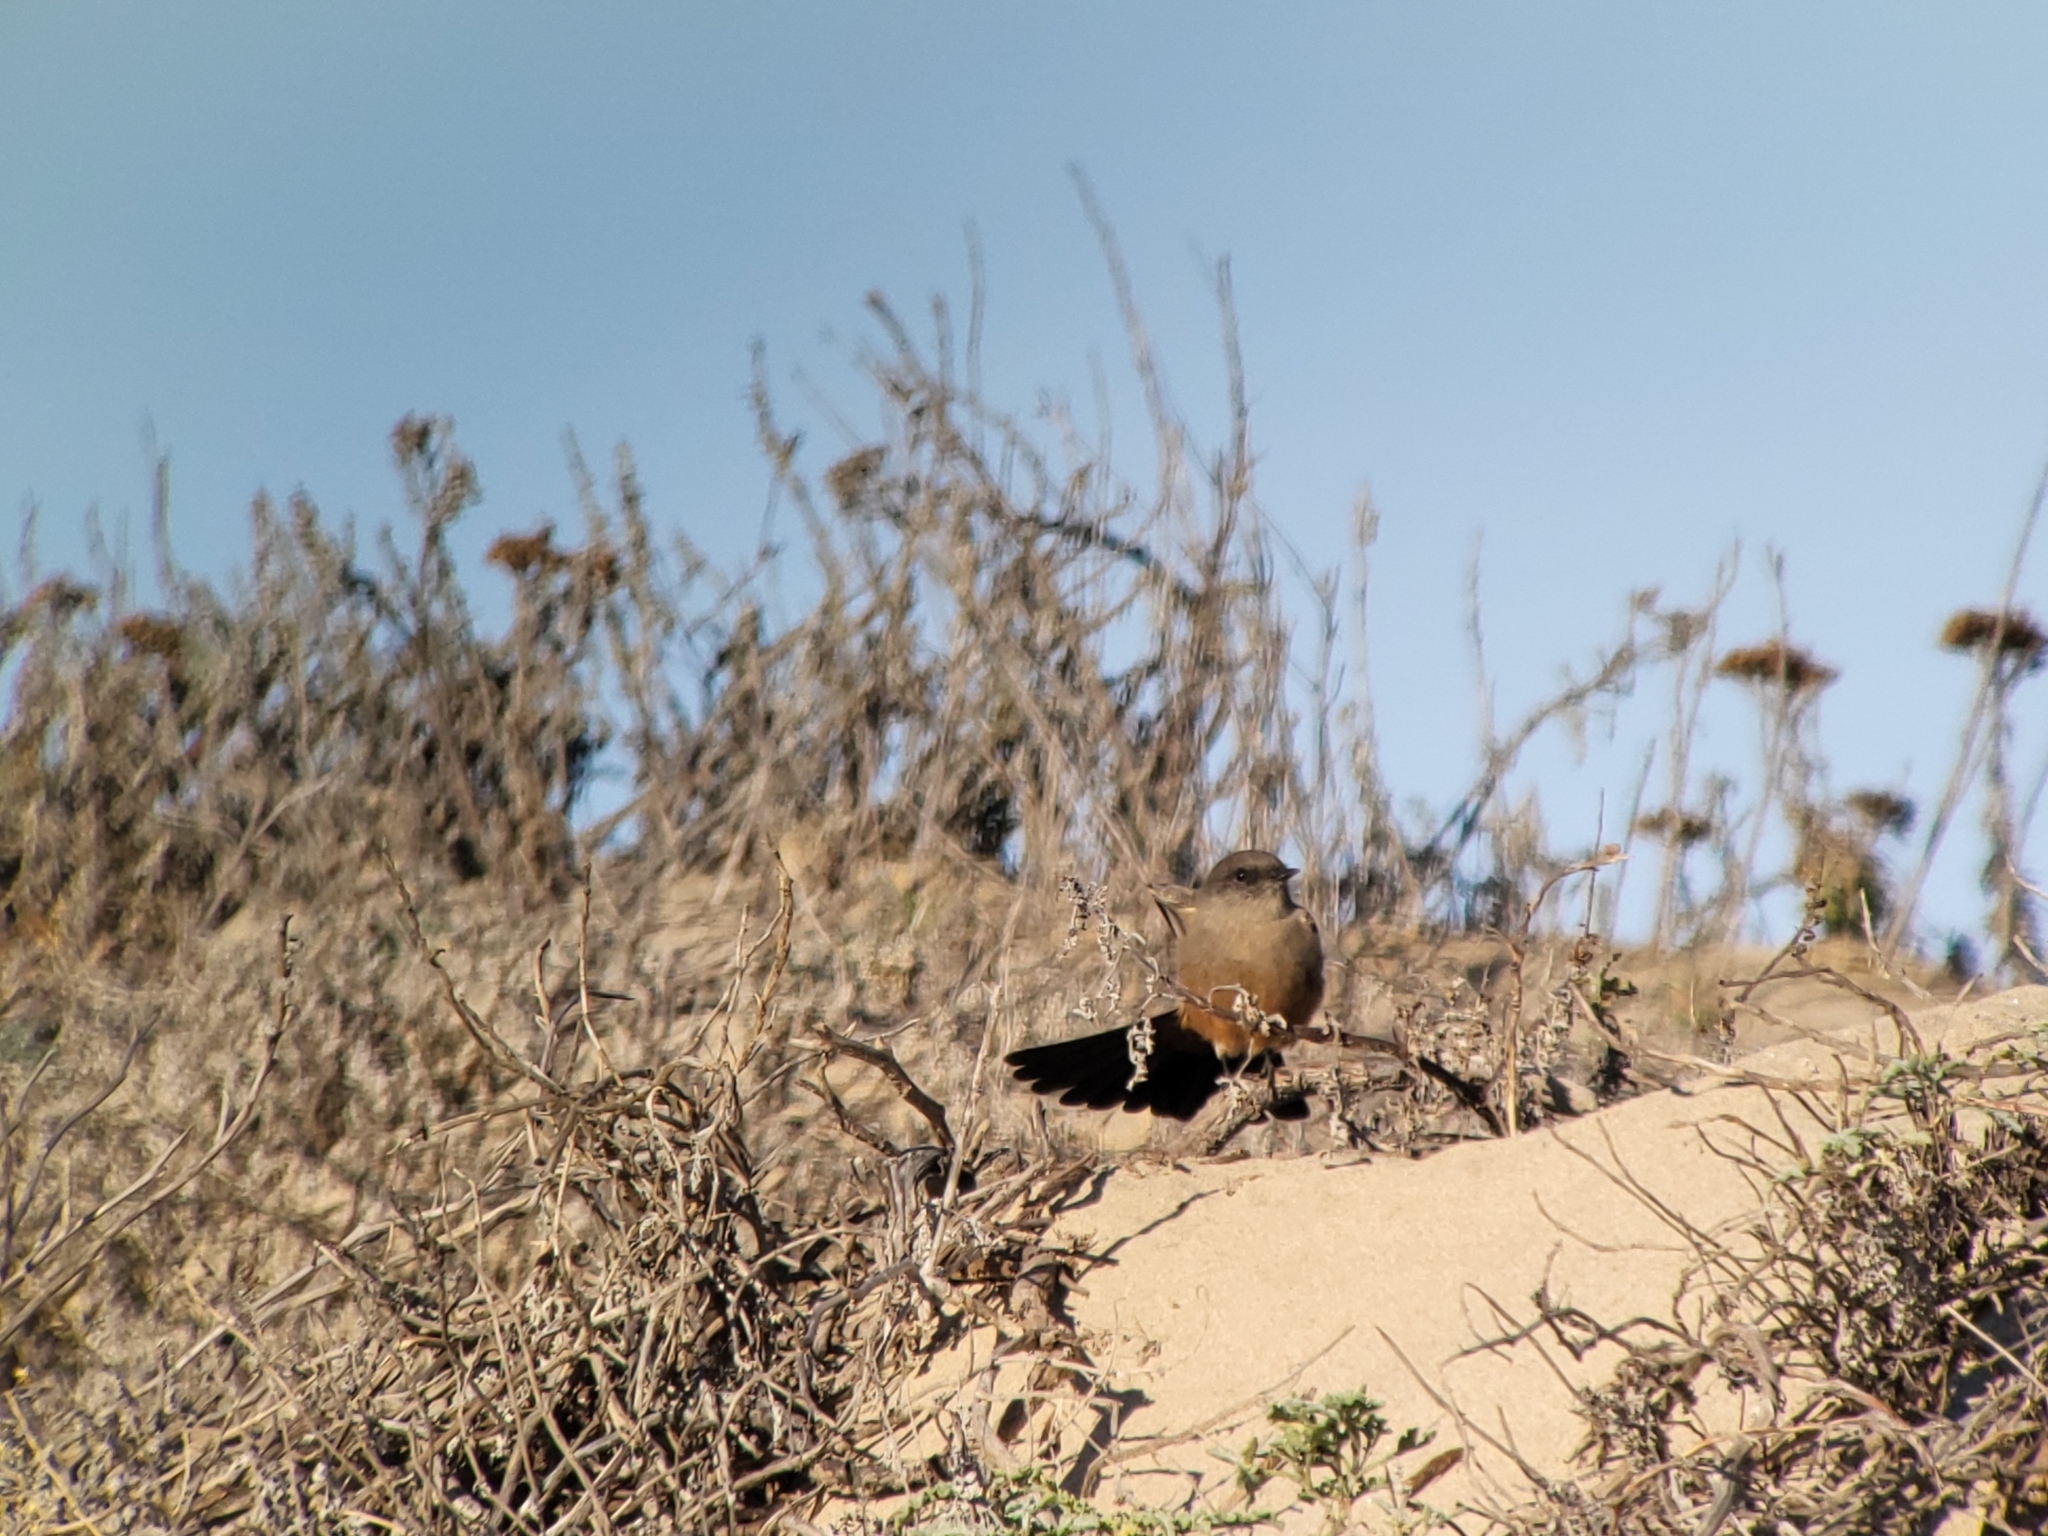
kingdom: Animalia
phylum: Chordata
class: Aves
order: Passeriformes
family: Tyrannidae
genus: Sayornis
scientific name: Sayornis saya
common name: Say's phoebe
